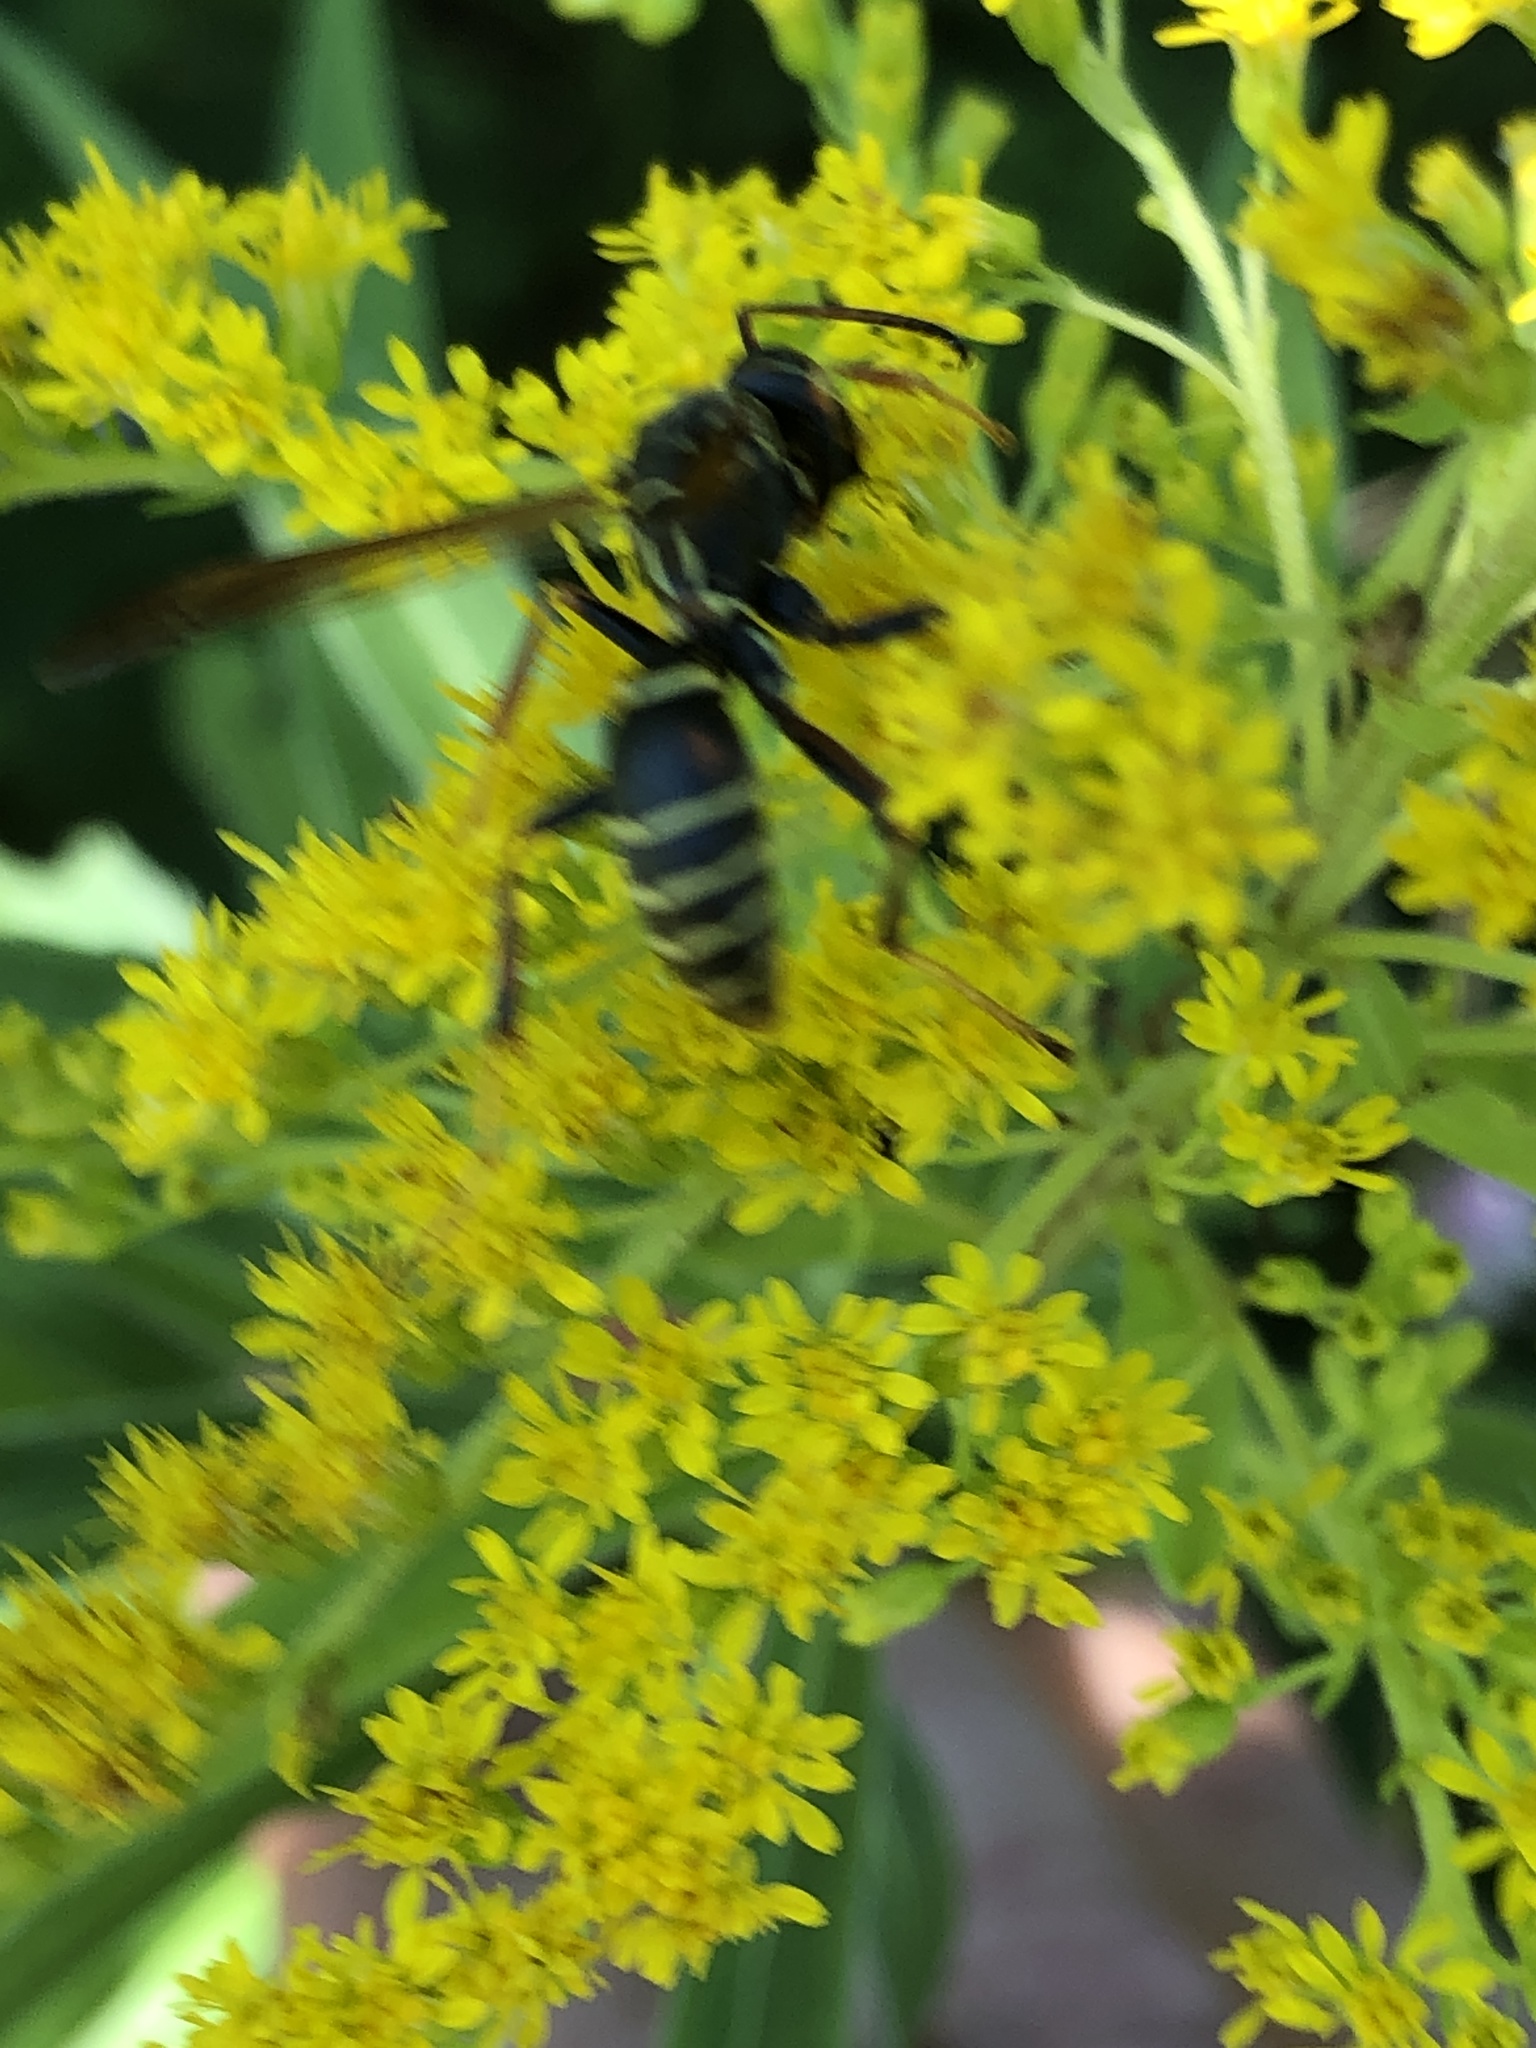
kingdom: Animalia
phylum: Arthropoda
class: Insecta
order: Hymenoptera
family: Eumenidae
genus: Polistes
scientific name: Polistes fuscatus
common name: Dark paper wasp
